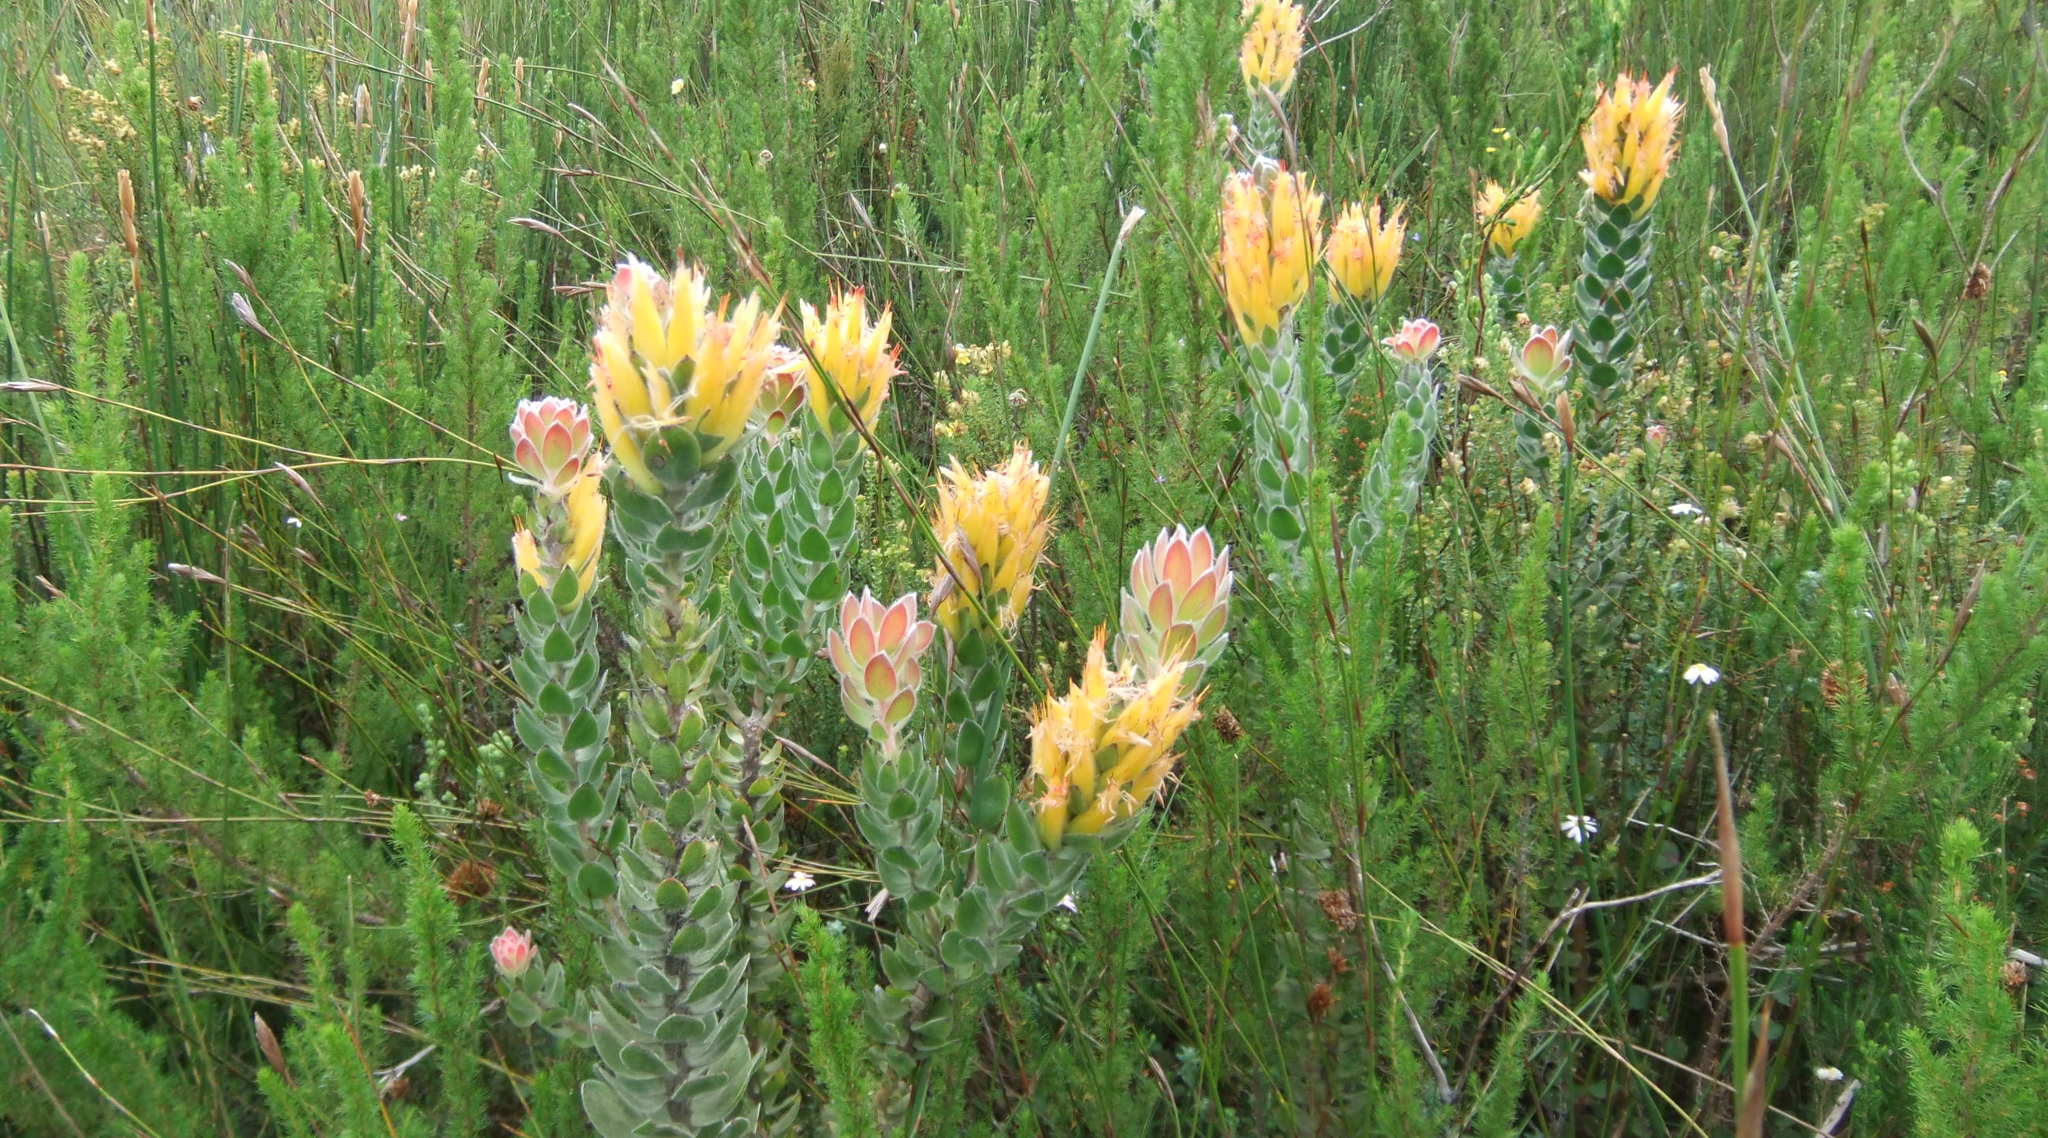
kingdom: Plantae
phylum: Tracheophyta
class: Magnoliopsida
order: Proteales
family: Proteaceae
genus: Mimetes
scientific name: Mimetes pauciflora
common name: Three-flowered pagoda
